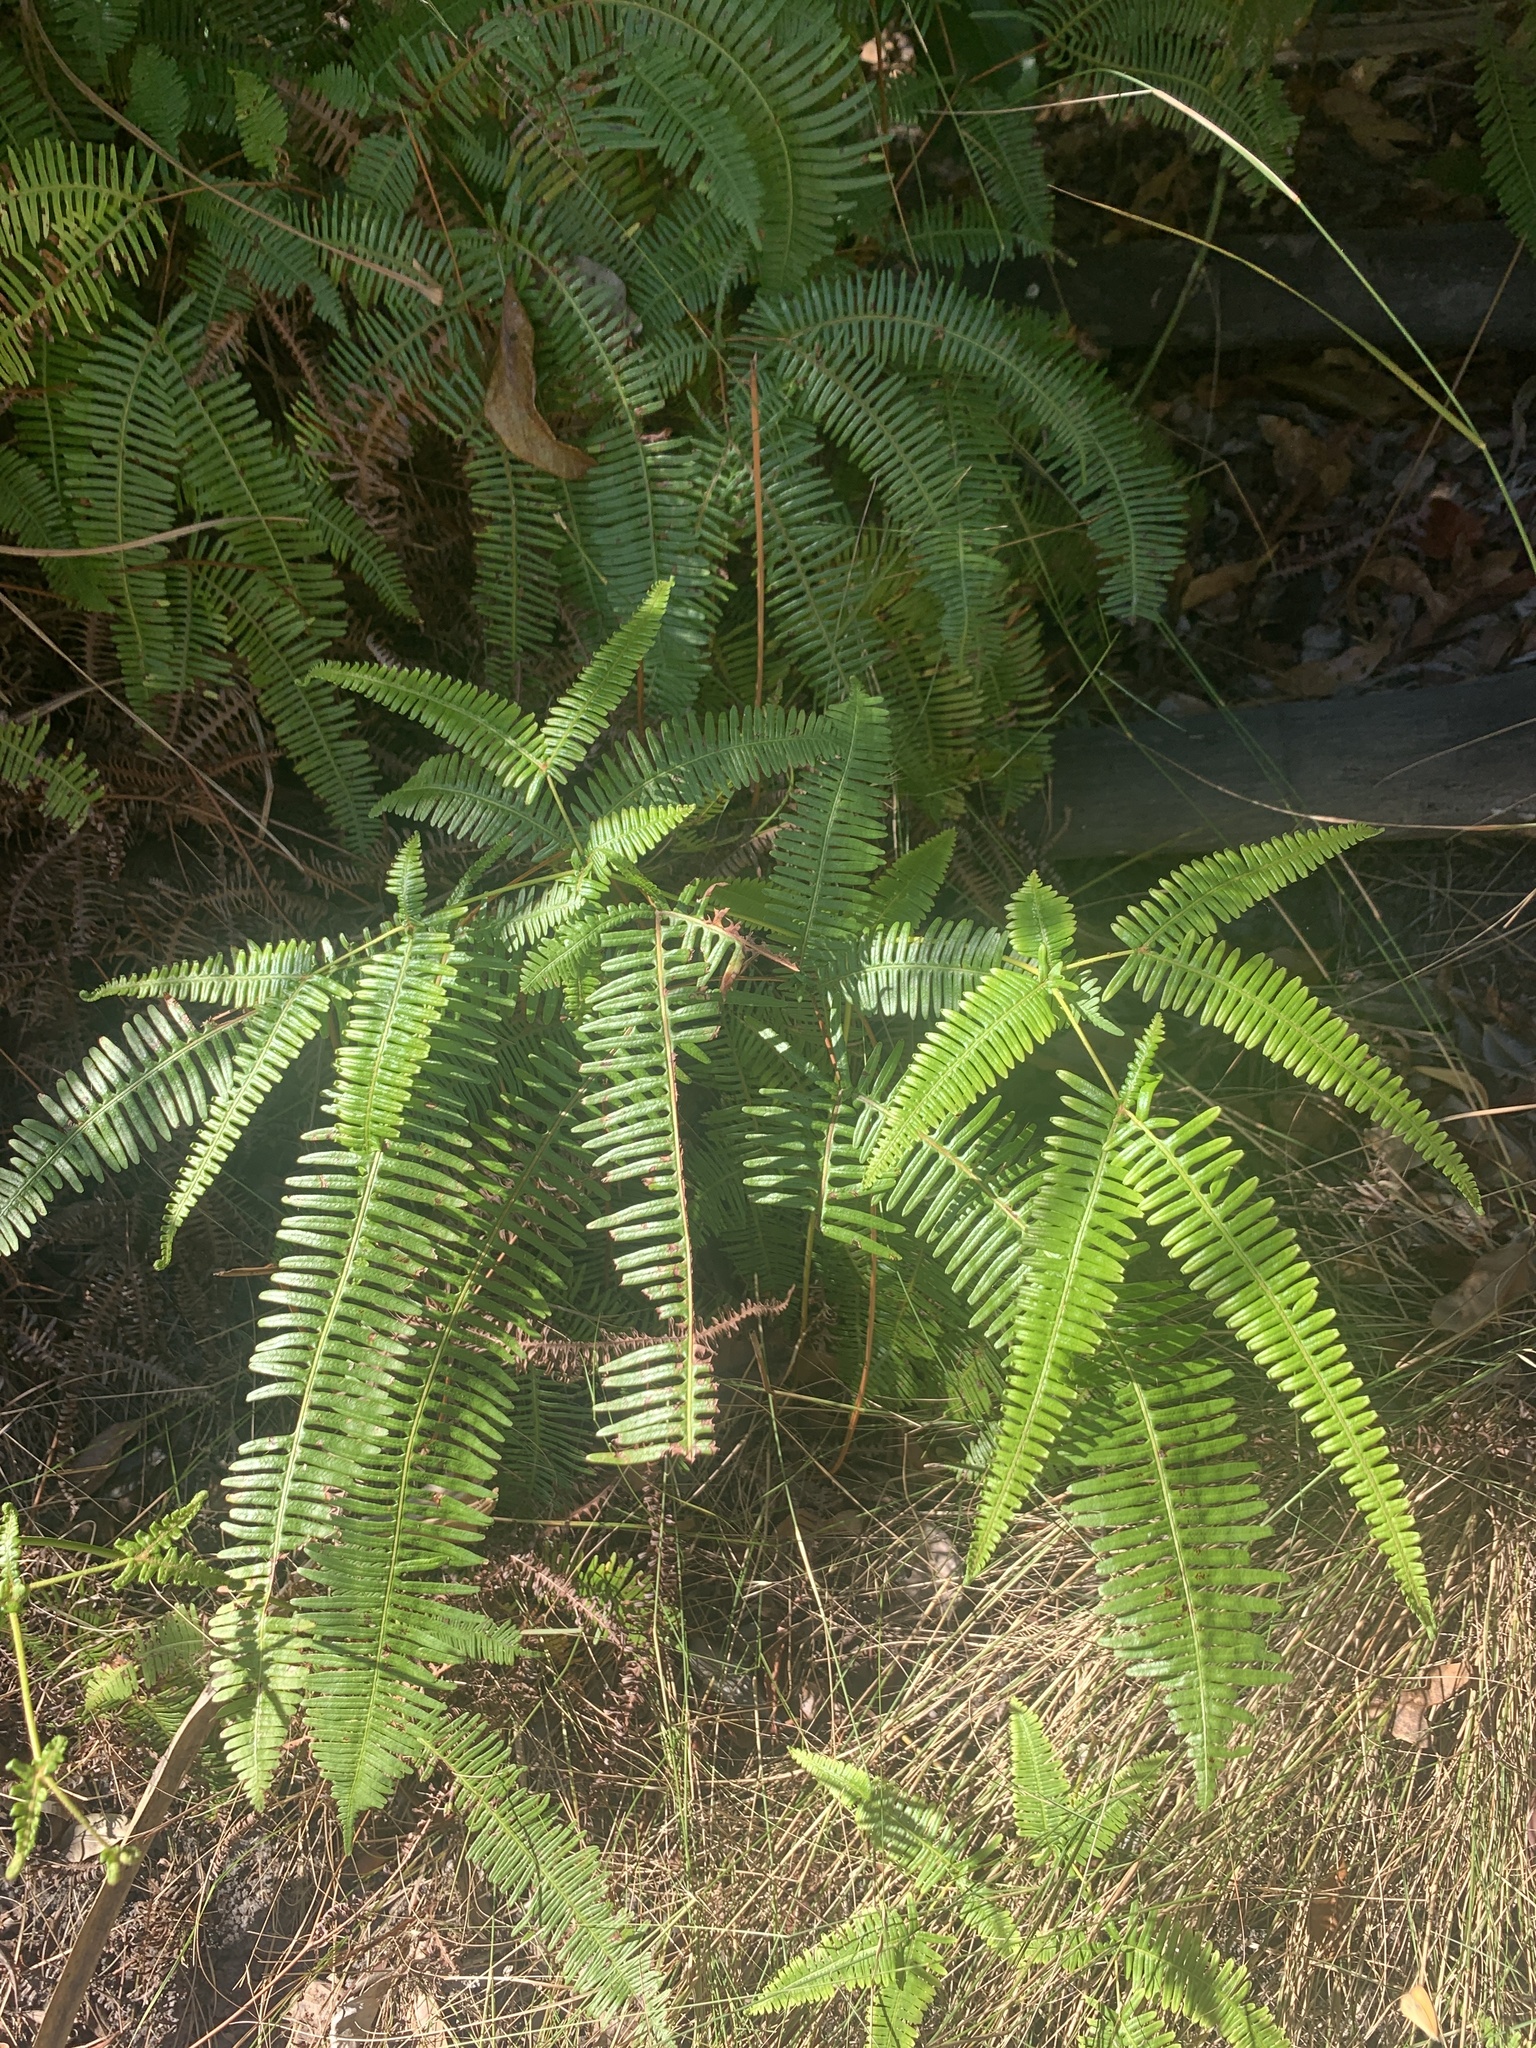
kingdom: Plantae
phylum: Tracheophyta
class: Polypodiopsida
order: Gleicheniales
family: Gleicheniaceae
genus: Dicranopteris
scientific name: Dicranopteris linearis
